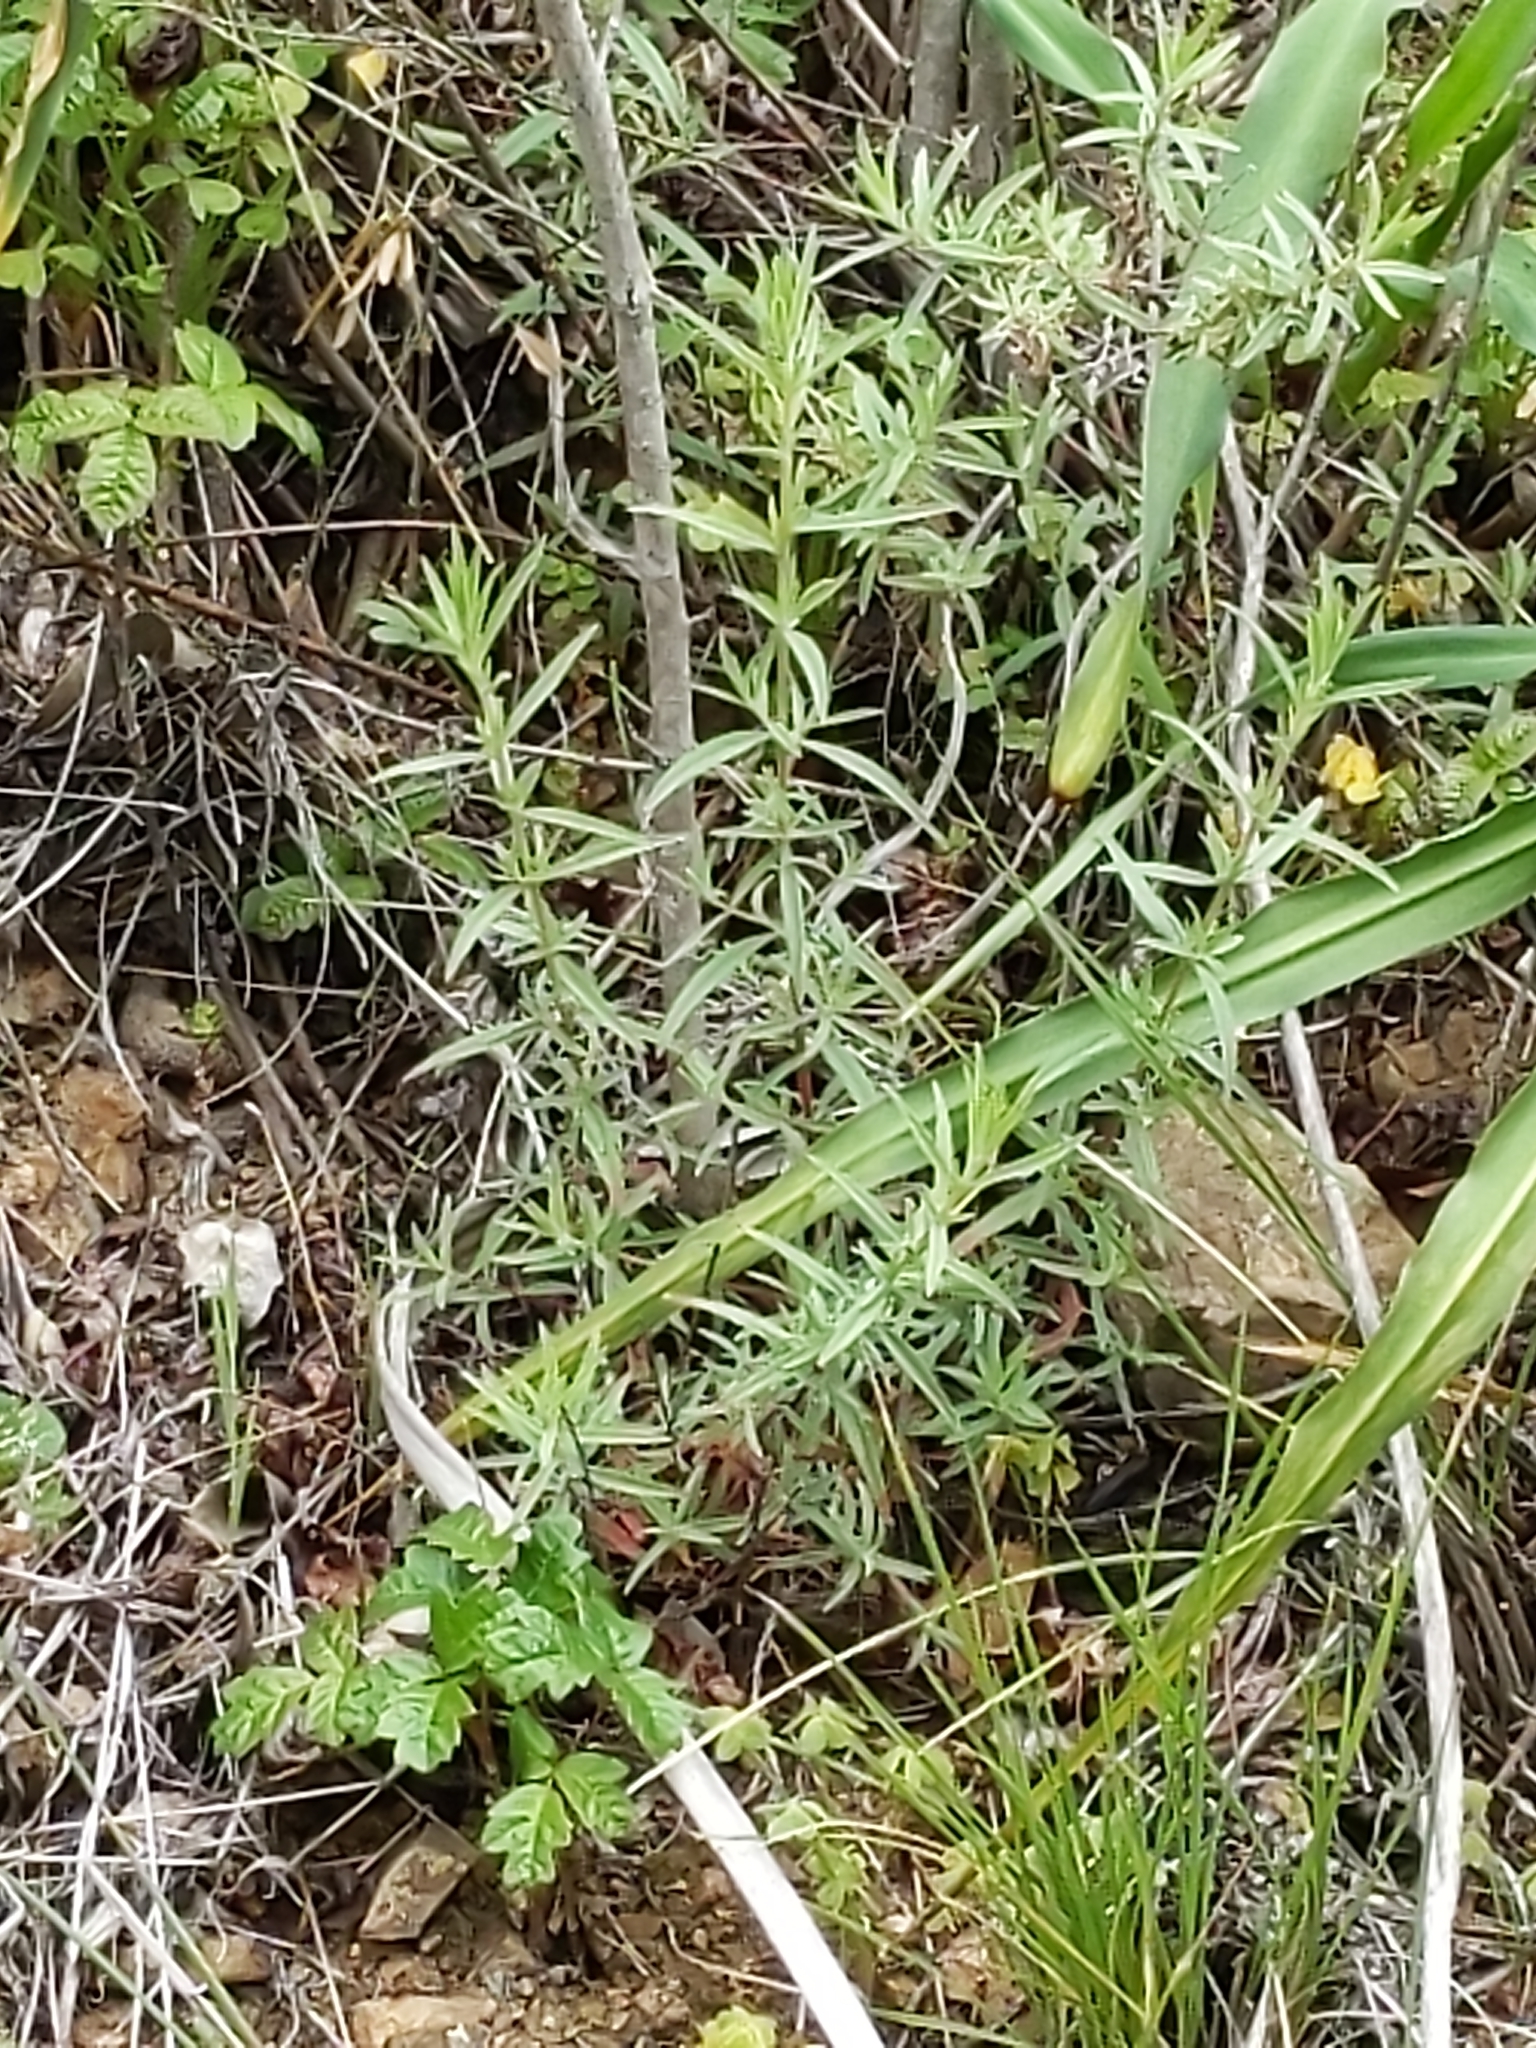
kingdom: Plantae
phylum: Tracheophyta
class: Magnoliopsida
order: Myrtales
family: Onagraceae
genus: Epilobium
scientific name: Epilobium canum
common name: California-fuchsia
